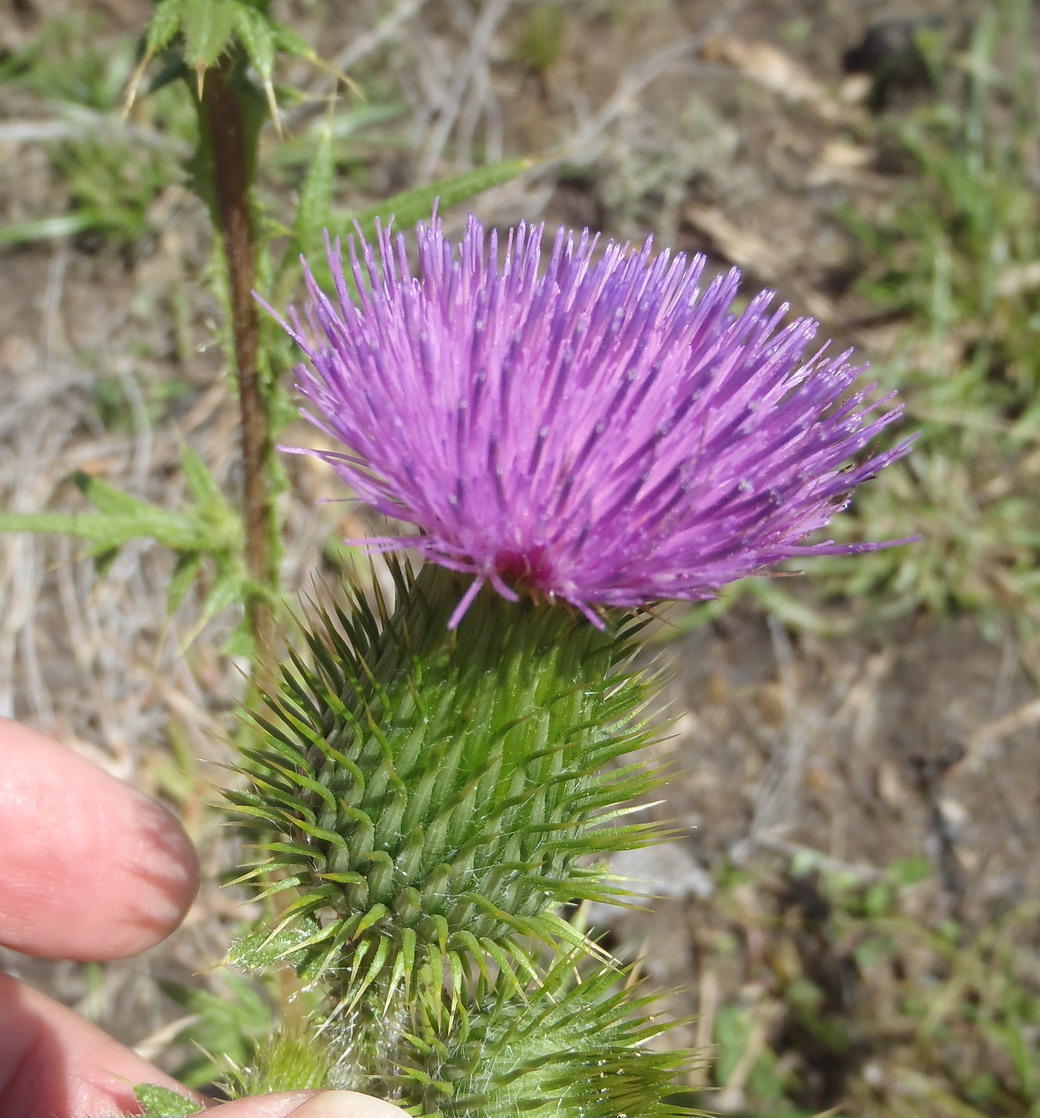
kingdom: Plantae
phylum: Tracheophyta
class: Magnoliopsida
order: Asterales
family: Asteraceae
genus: Cirsium
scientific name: Cirsium vulgare
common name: Bull thistle
